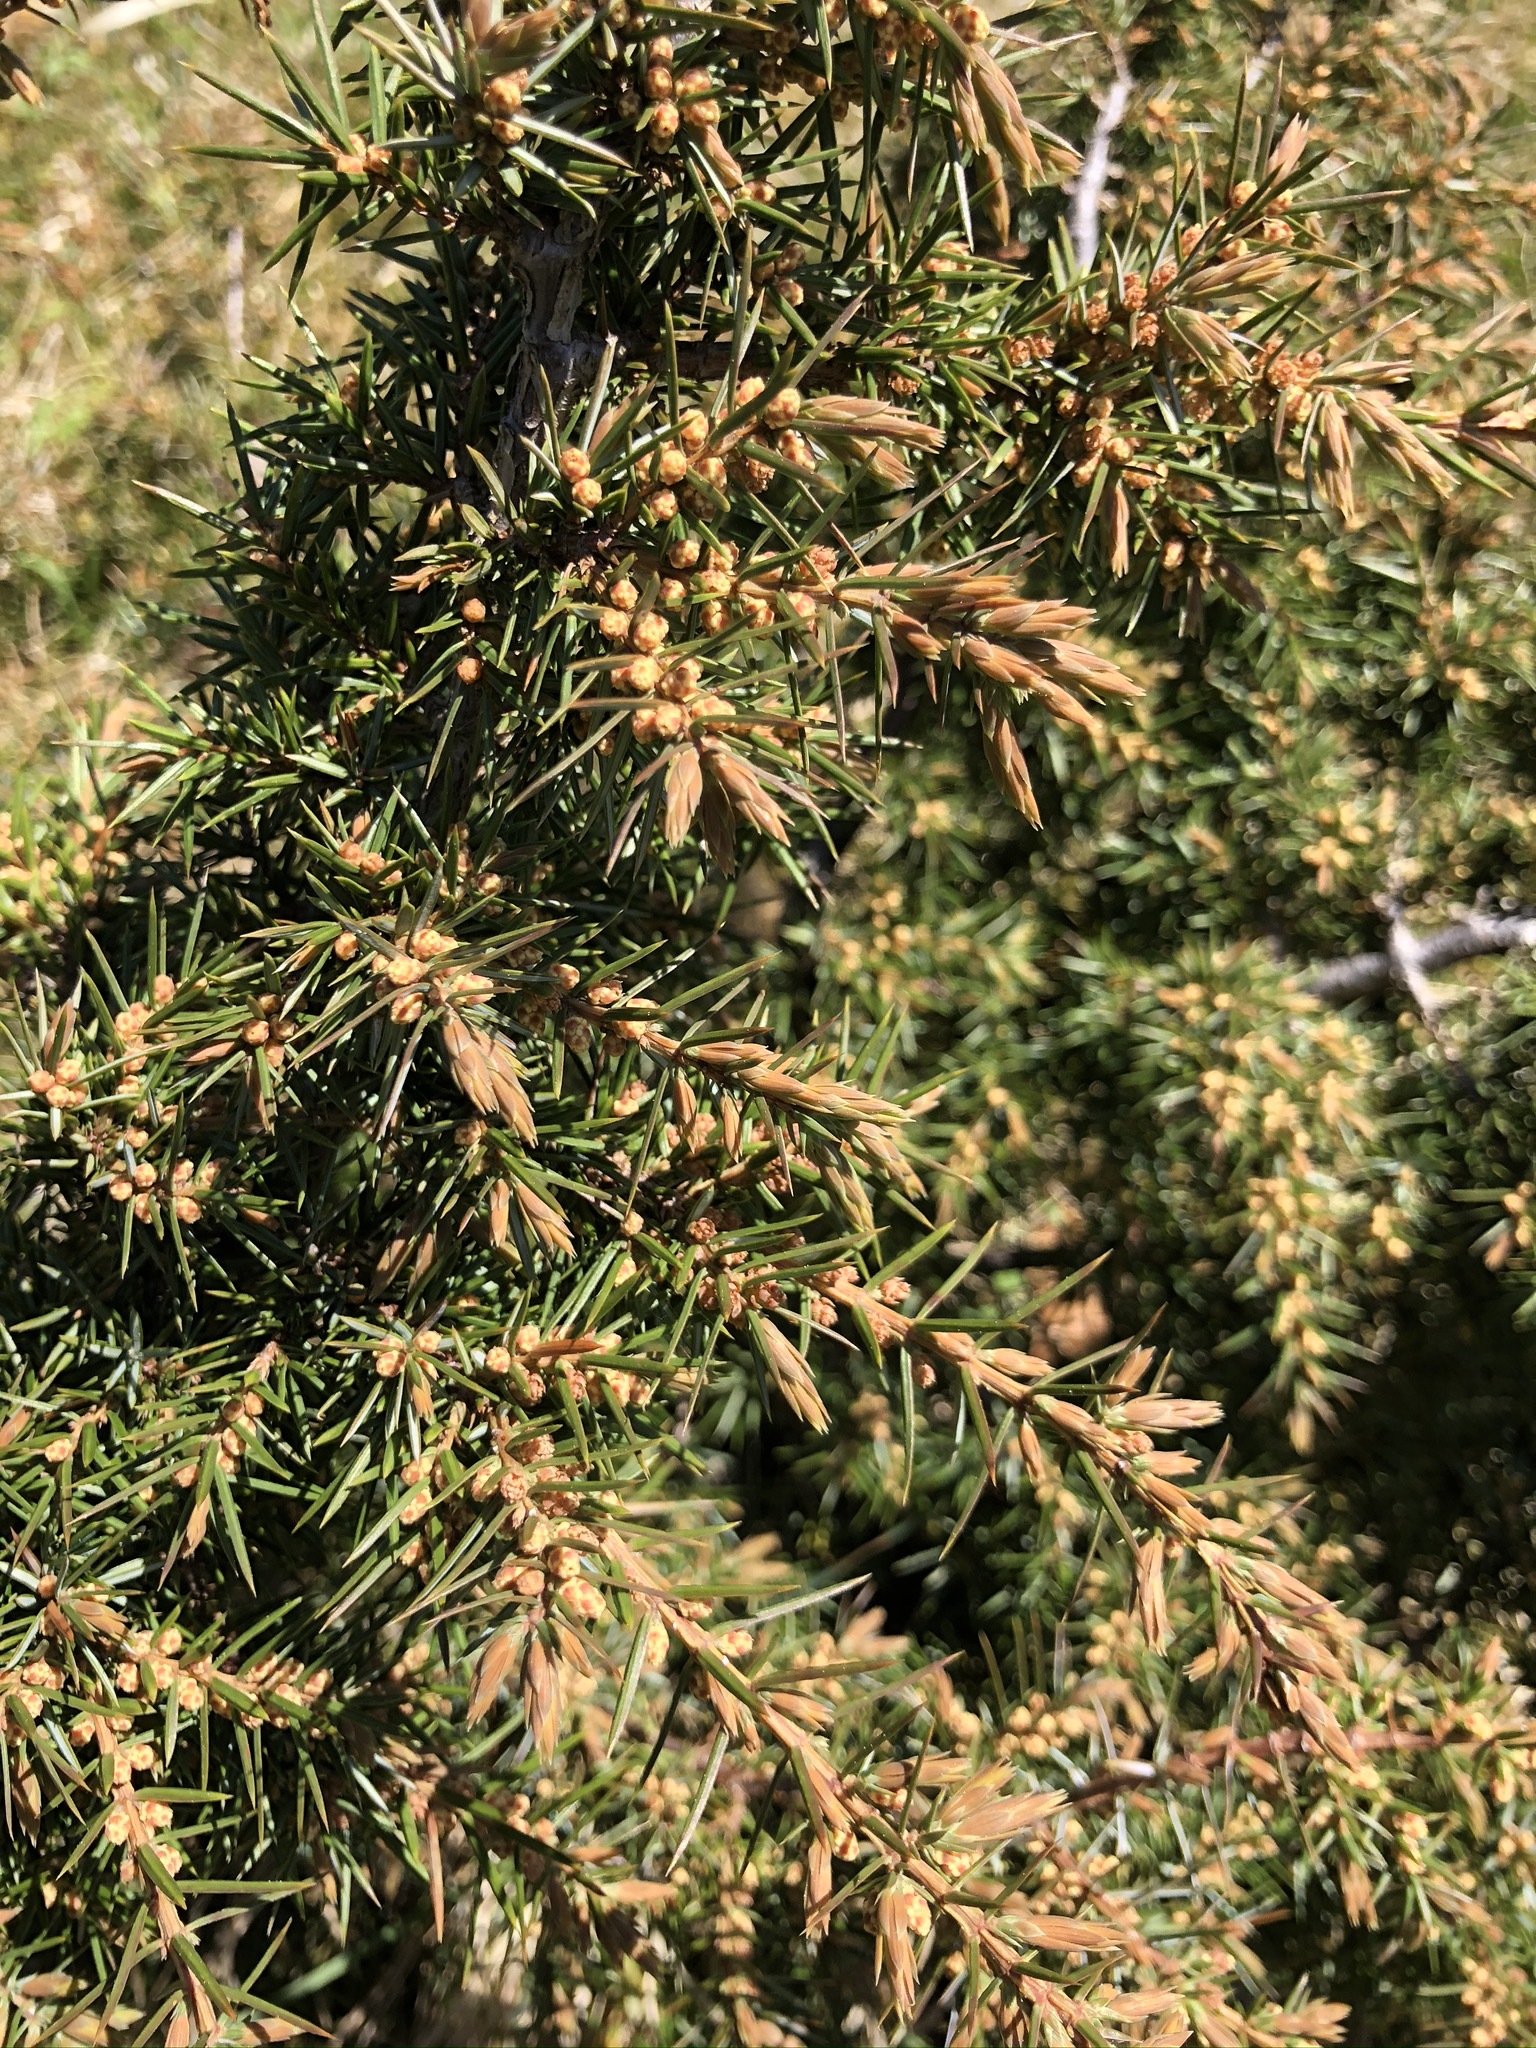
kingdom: Plantae
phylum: Tracheophyta
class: Pinopsida
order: Pinales
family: Cupressaceae
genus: Juniperus
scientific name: Juniperus communis
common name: Common juniper
